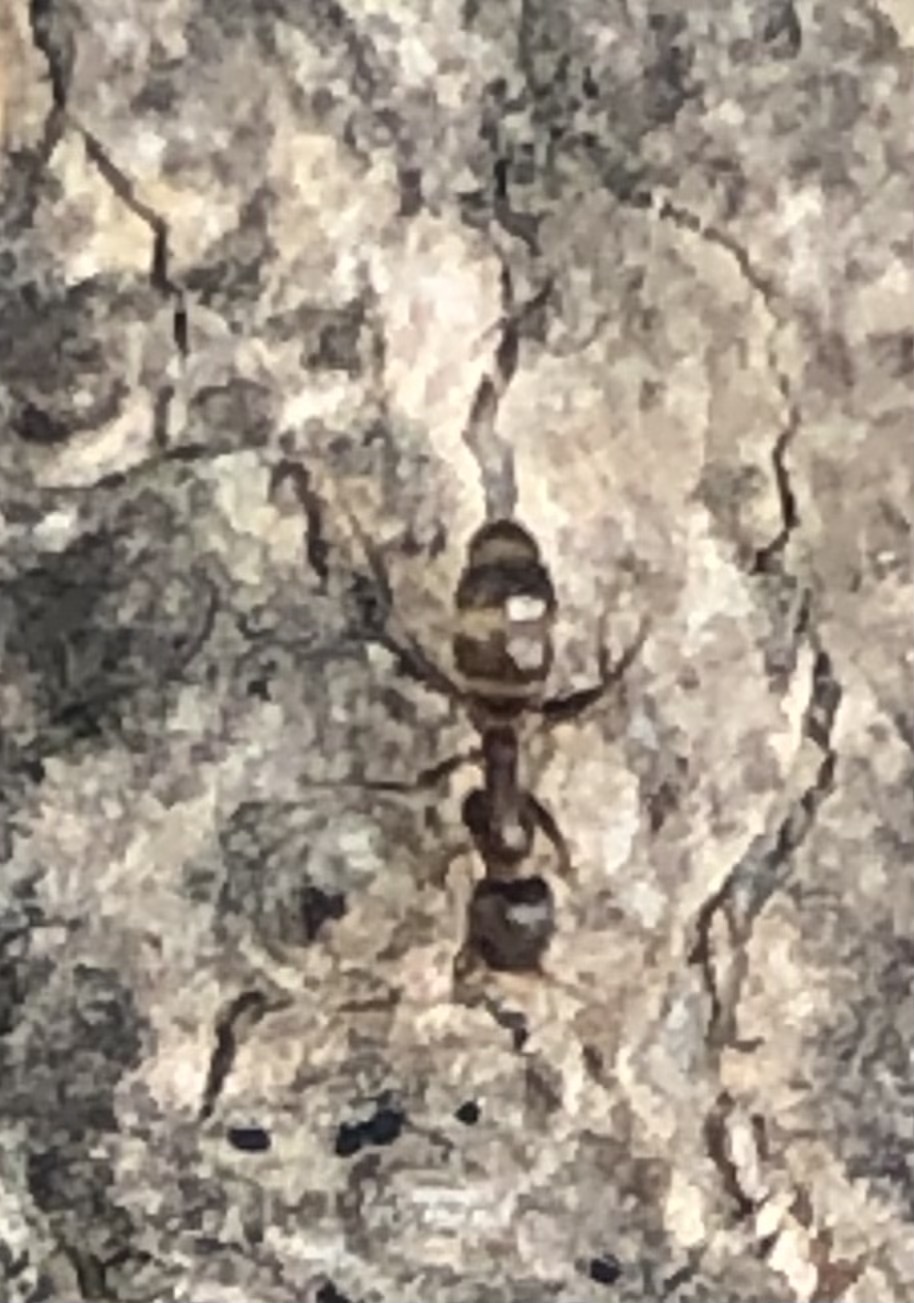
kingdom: Animalia
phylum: Arthropoda
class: Insecta
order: Hymenoptera
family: Formicidae
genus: Linepithema
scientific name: Linepithema humile
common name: Argentine ant
